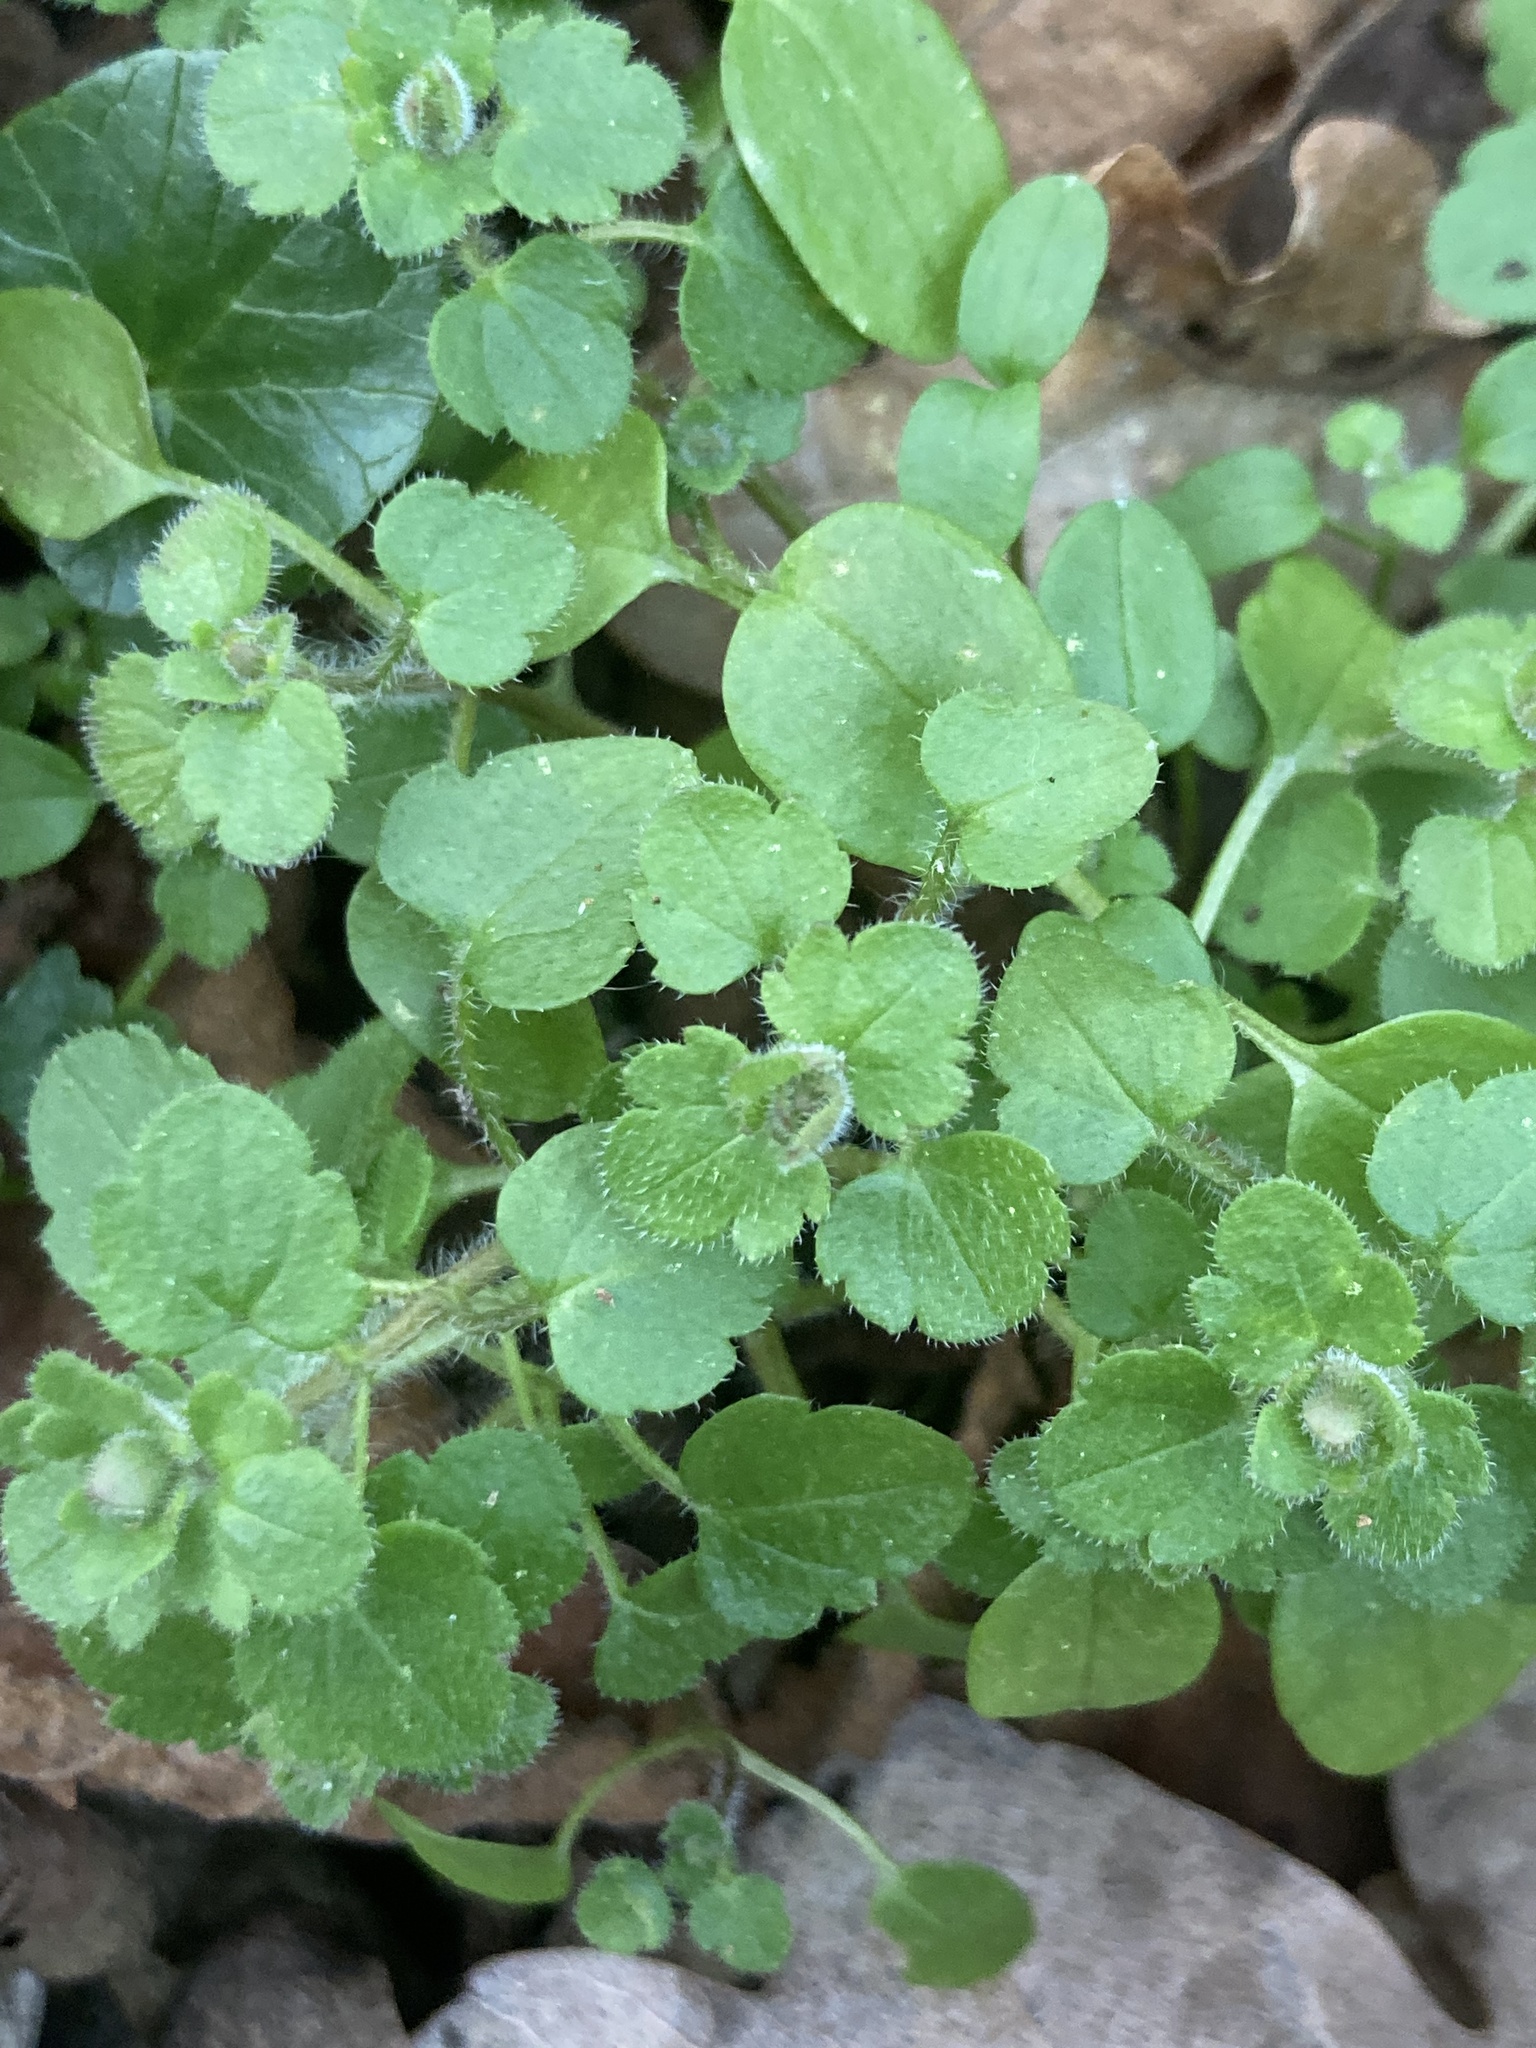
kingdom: Plantae
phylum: Tracheophyta
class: Magnoliopsida
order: Lamiales
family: Plantaginaceae
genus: Veronica
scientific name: Veronica sublobata
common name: False ivy-leaved speedwell
